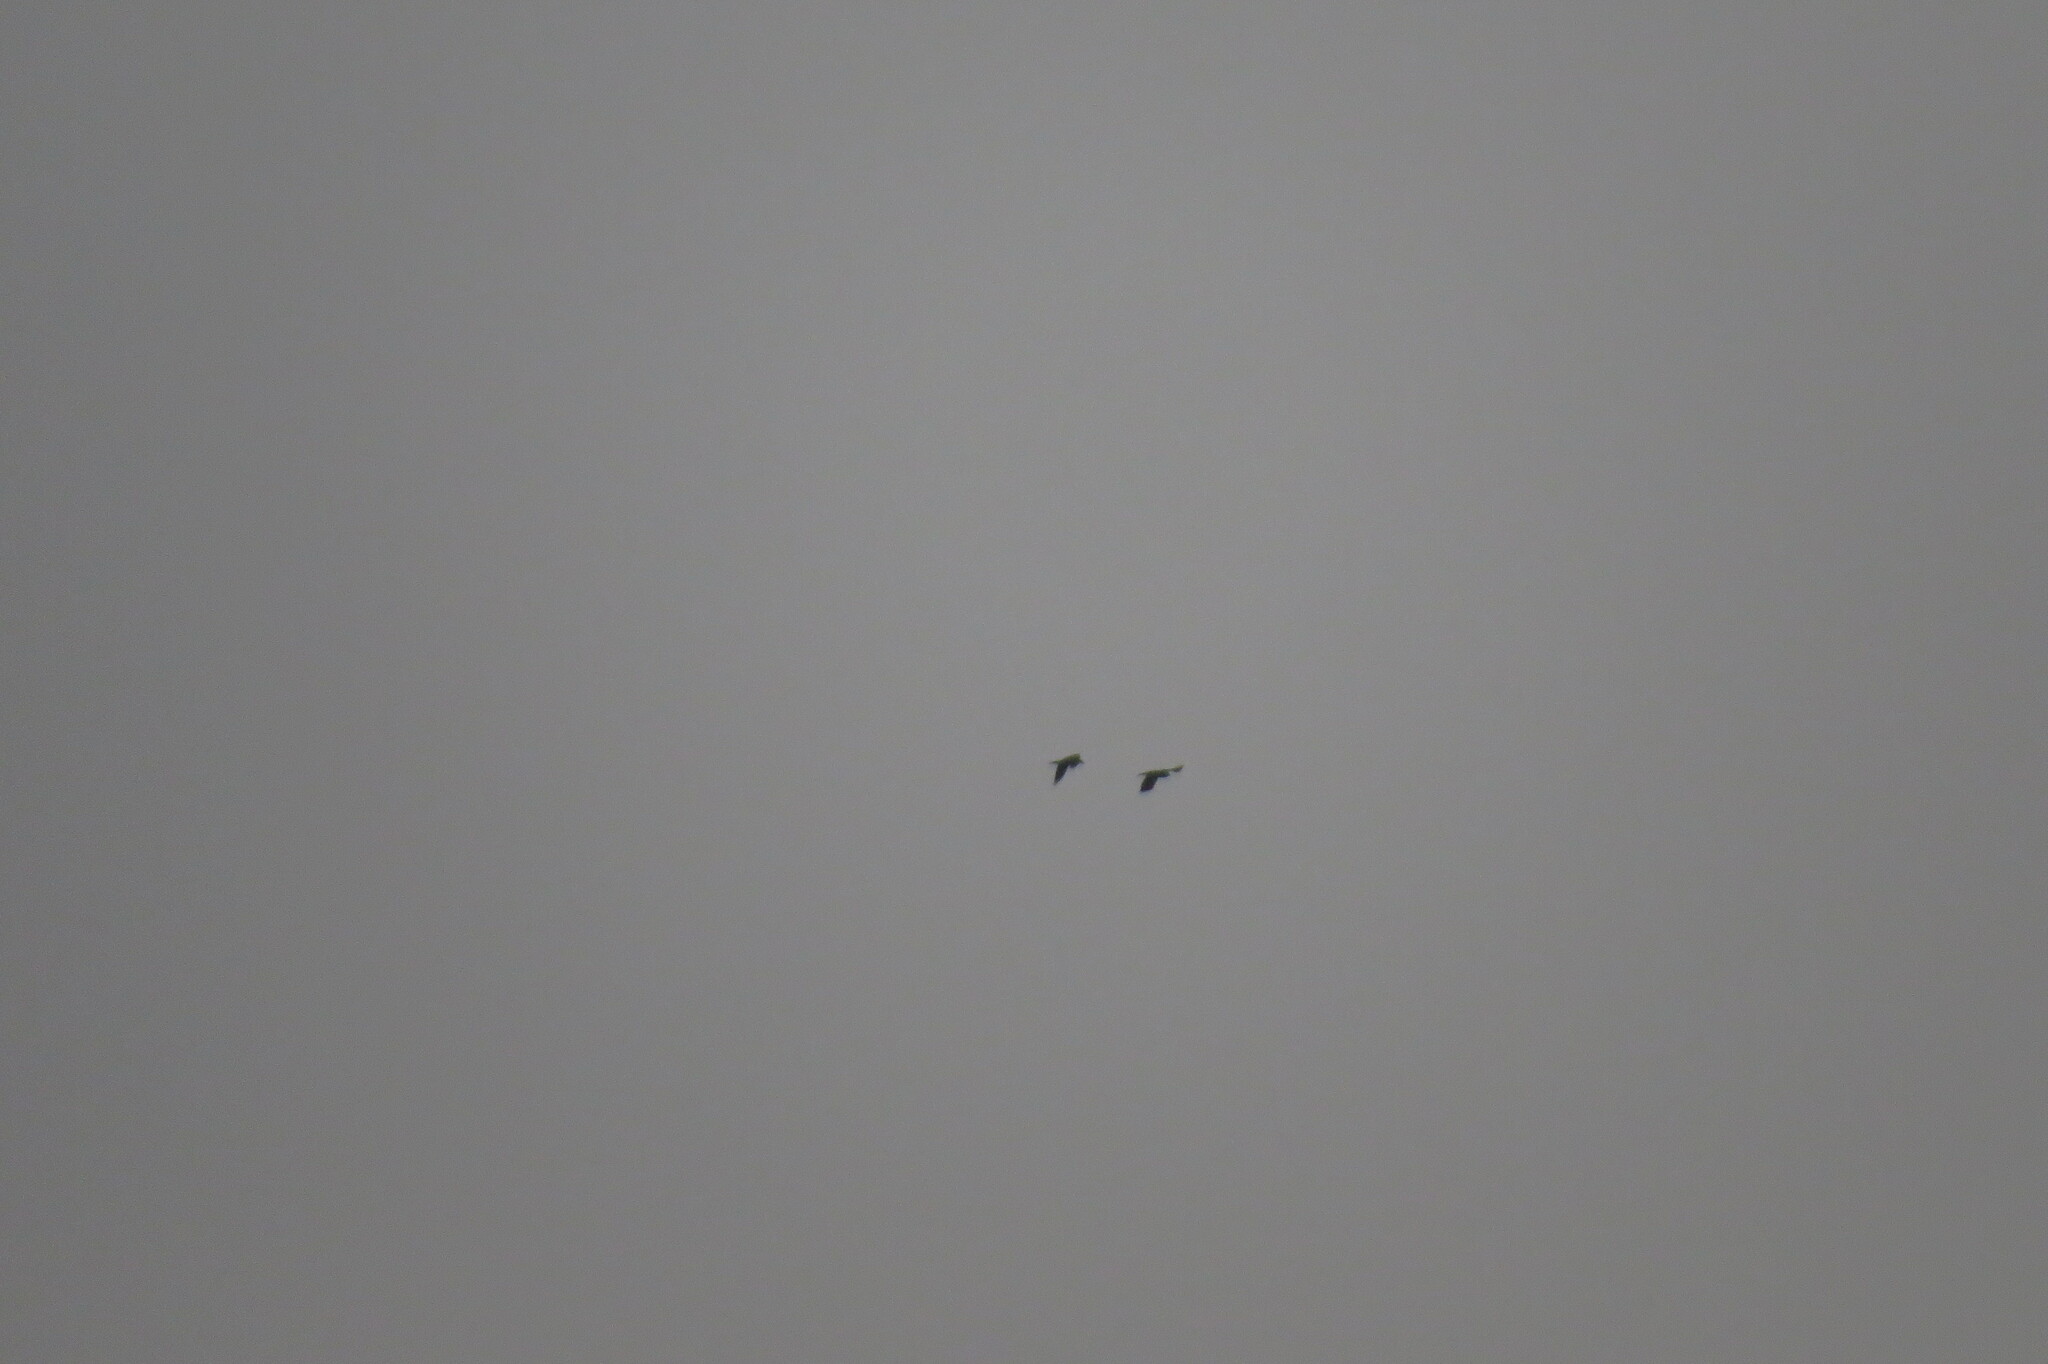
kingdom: Animalia
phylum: Chordata
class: Aves
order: Passeriformes
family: Corvidae
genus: Corvus
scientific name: Corvus corax
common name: Common raven
